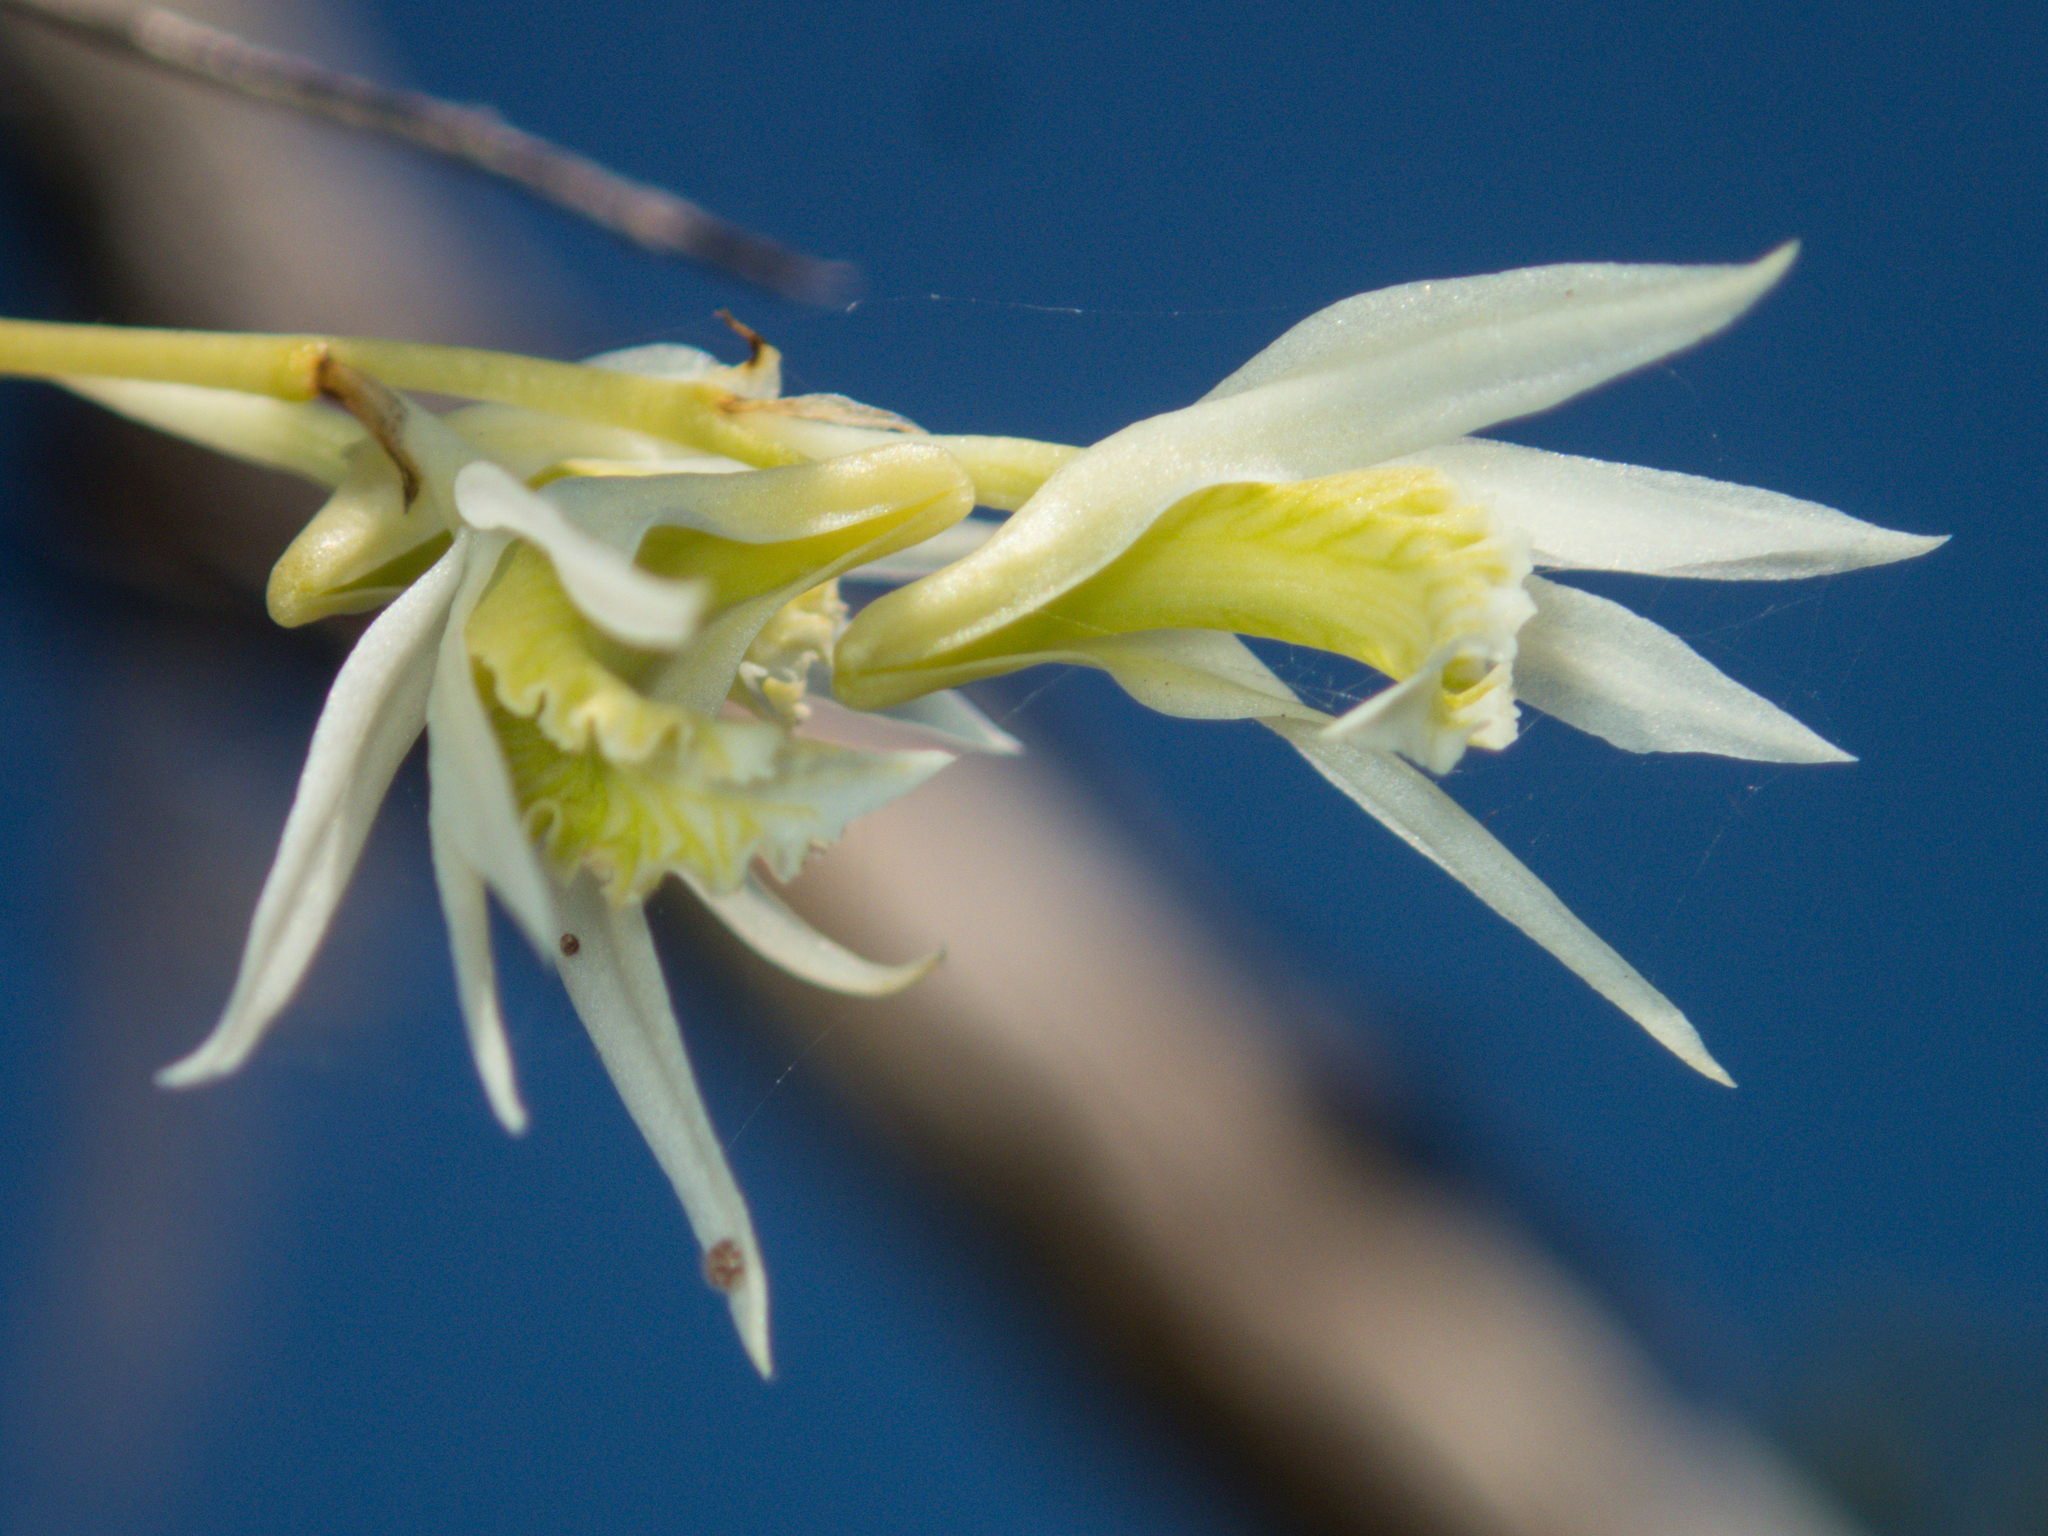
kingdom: Plantae
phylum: Tracheophyta
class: Liliopsida
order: Asparagales
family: Orchidaceae
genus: Dendrobium
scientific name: Dendrobium kratense
